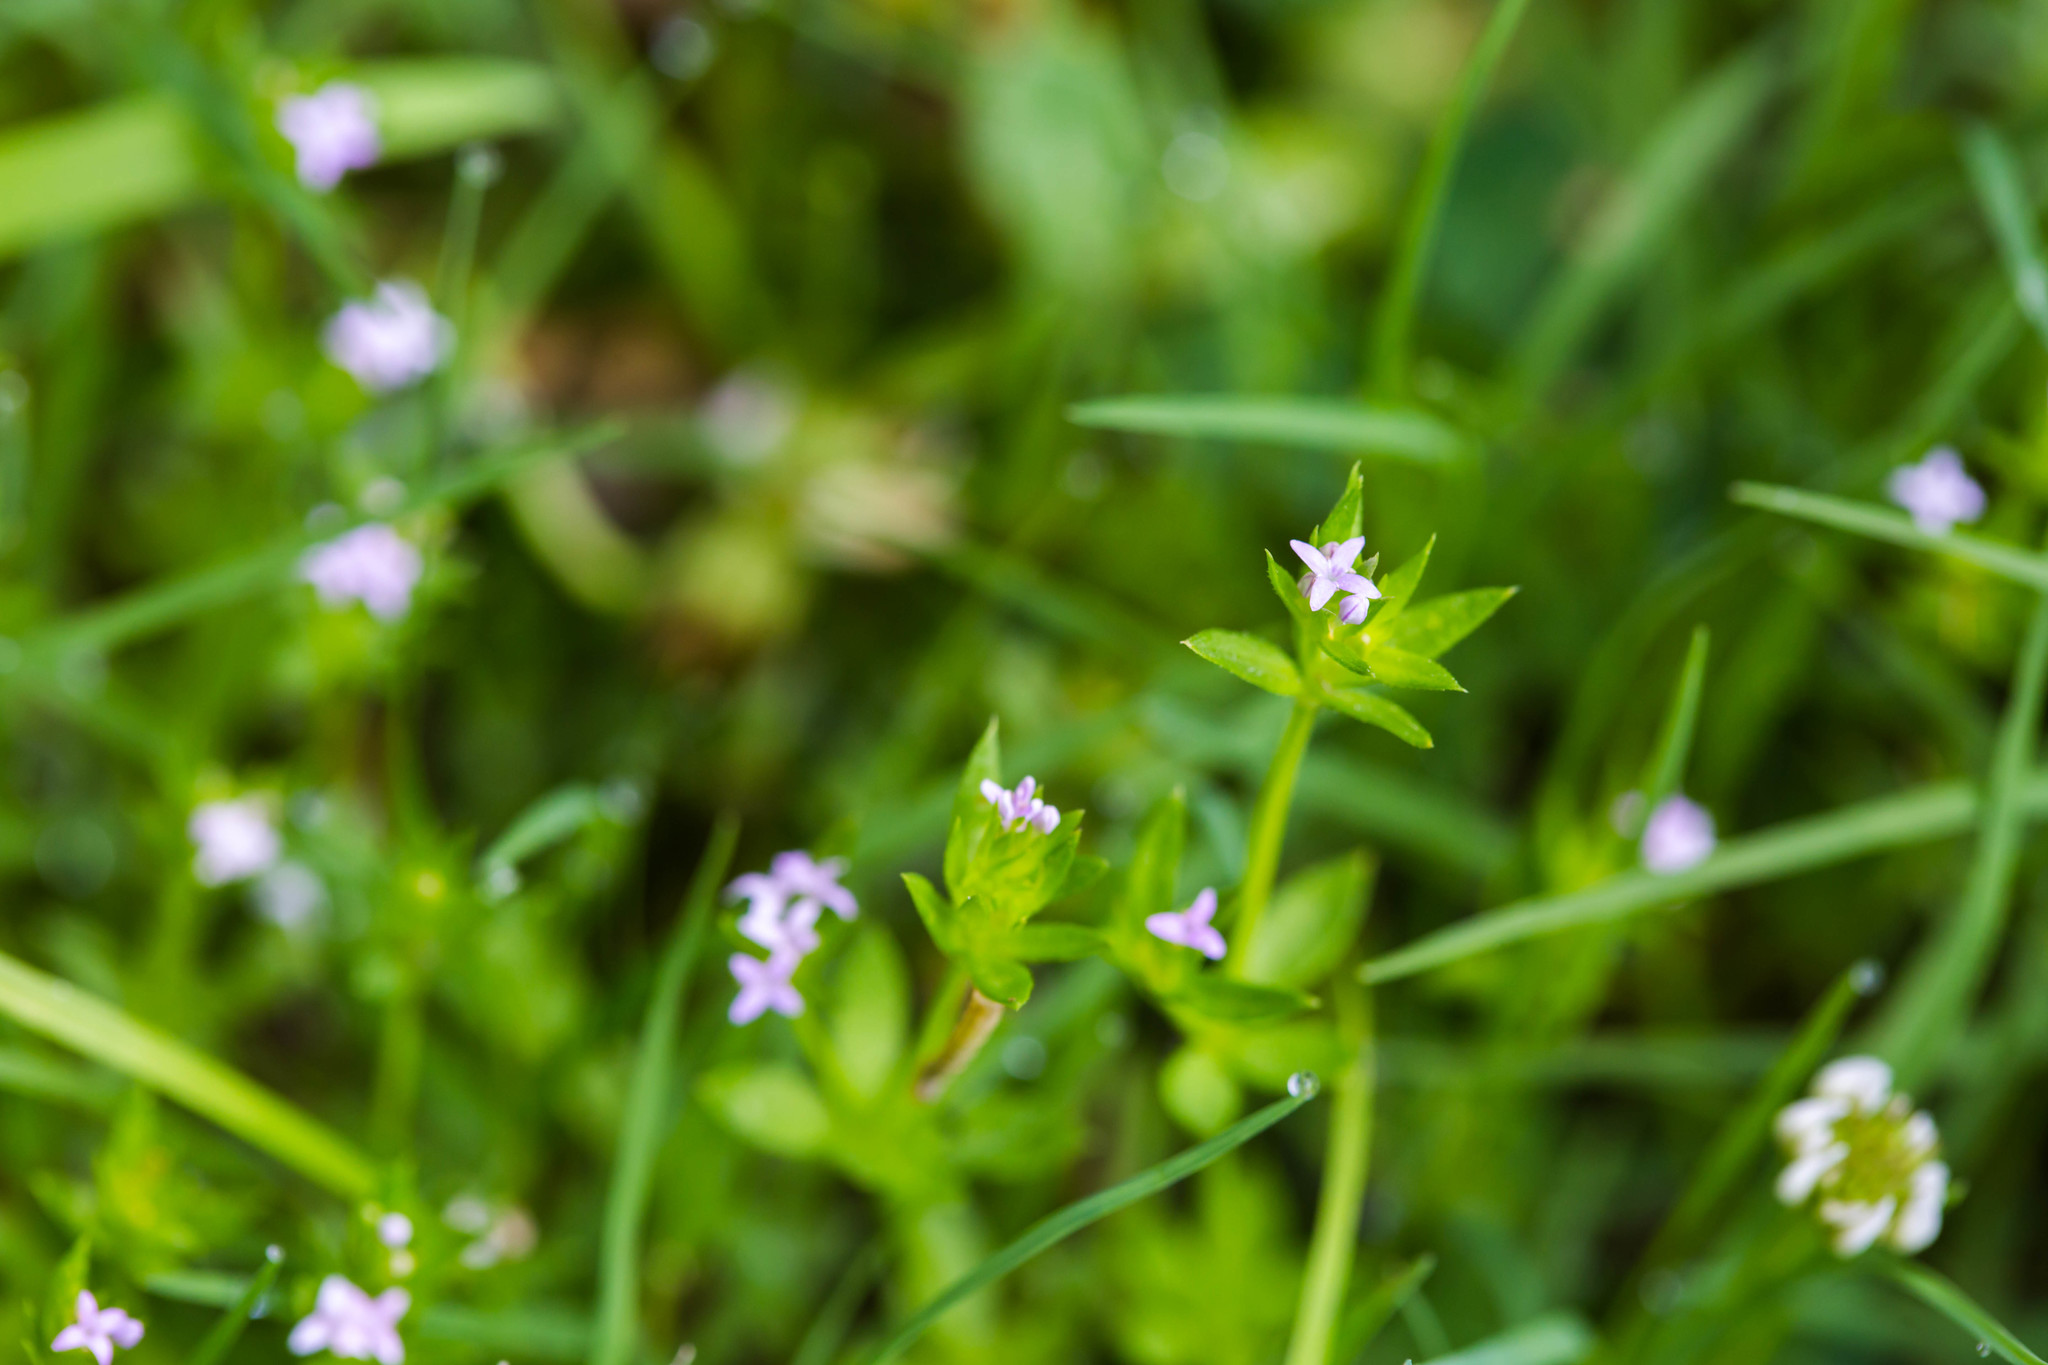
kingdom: Plantae
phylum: Tracheophyta
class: Magnoliopsida
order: Gentianales
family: Rubiaceae
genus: Sherardia
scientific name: Sherardia arvensis
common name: Field madder
